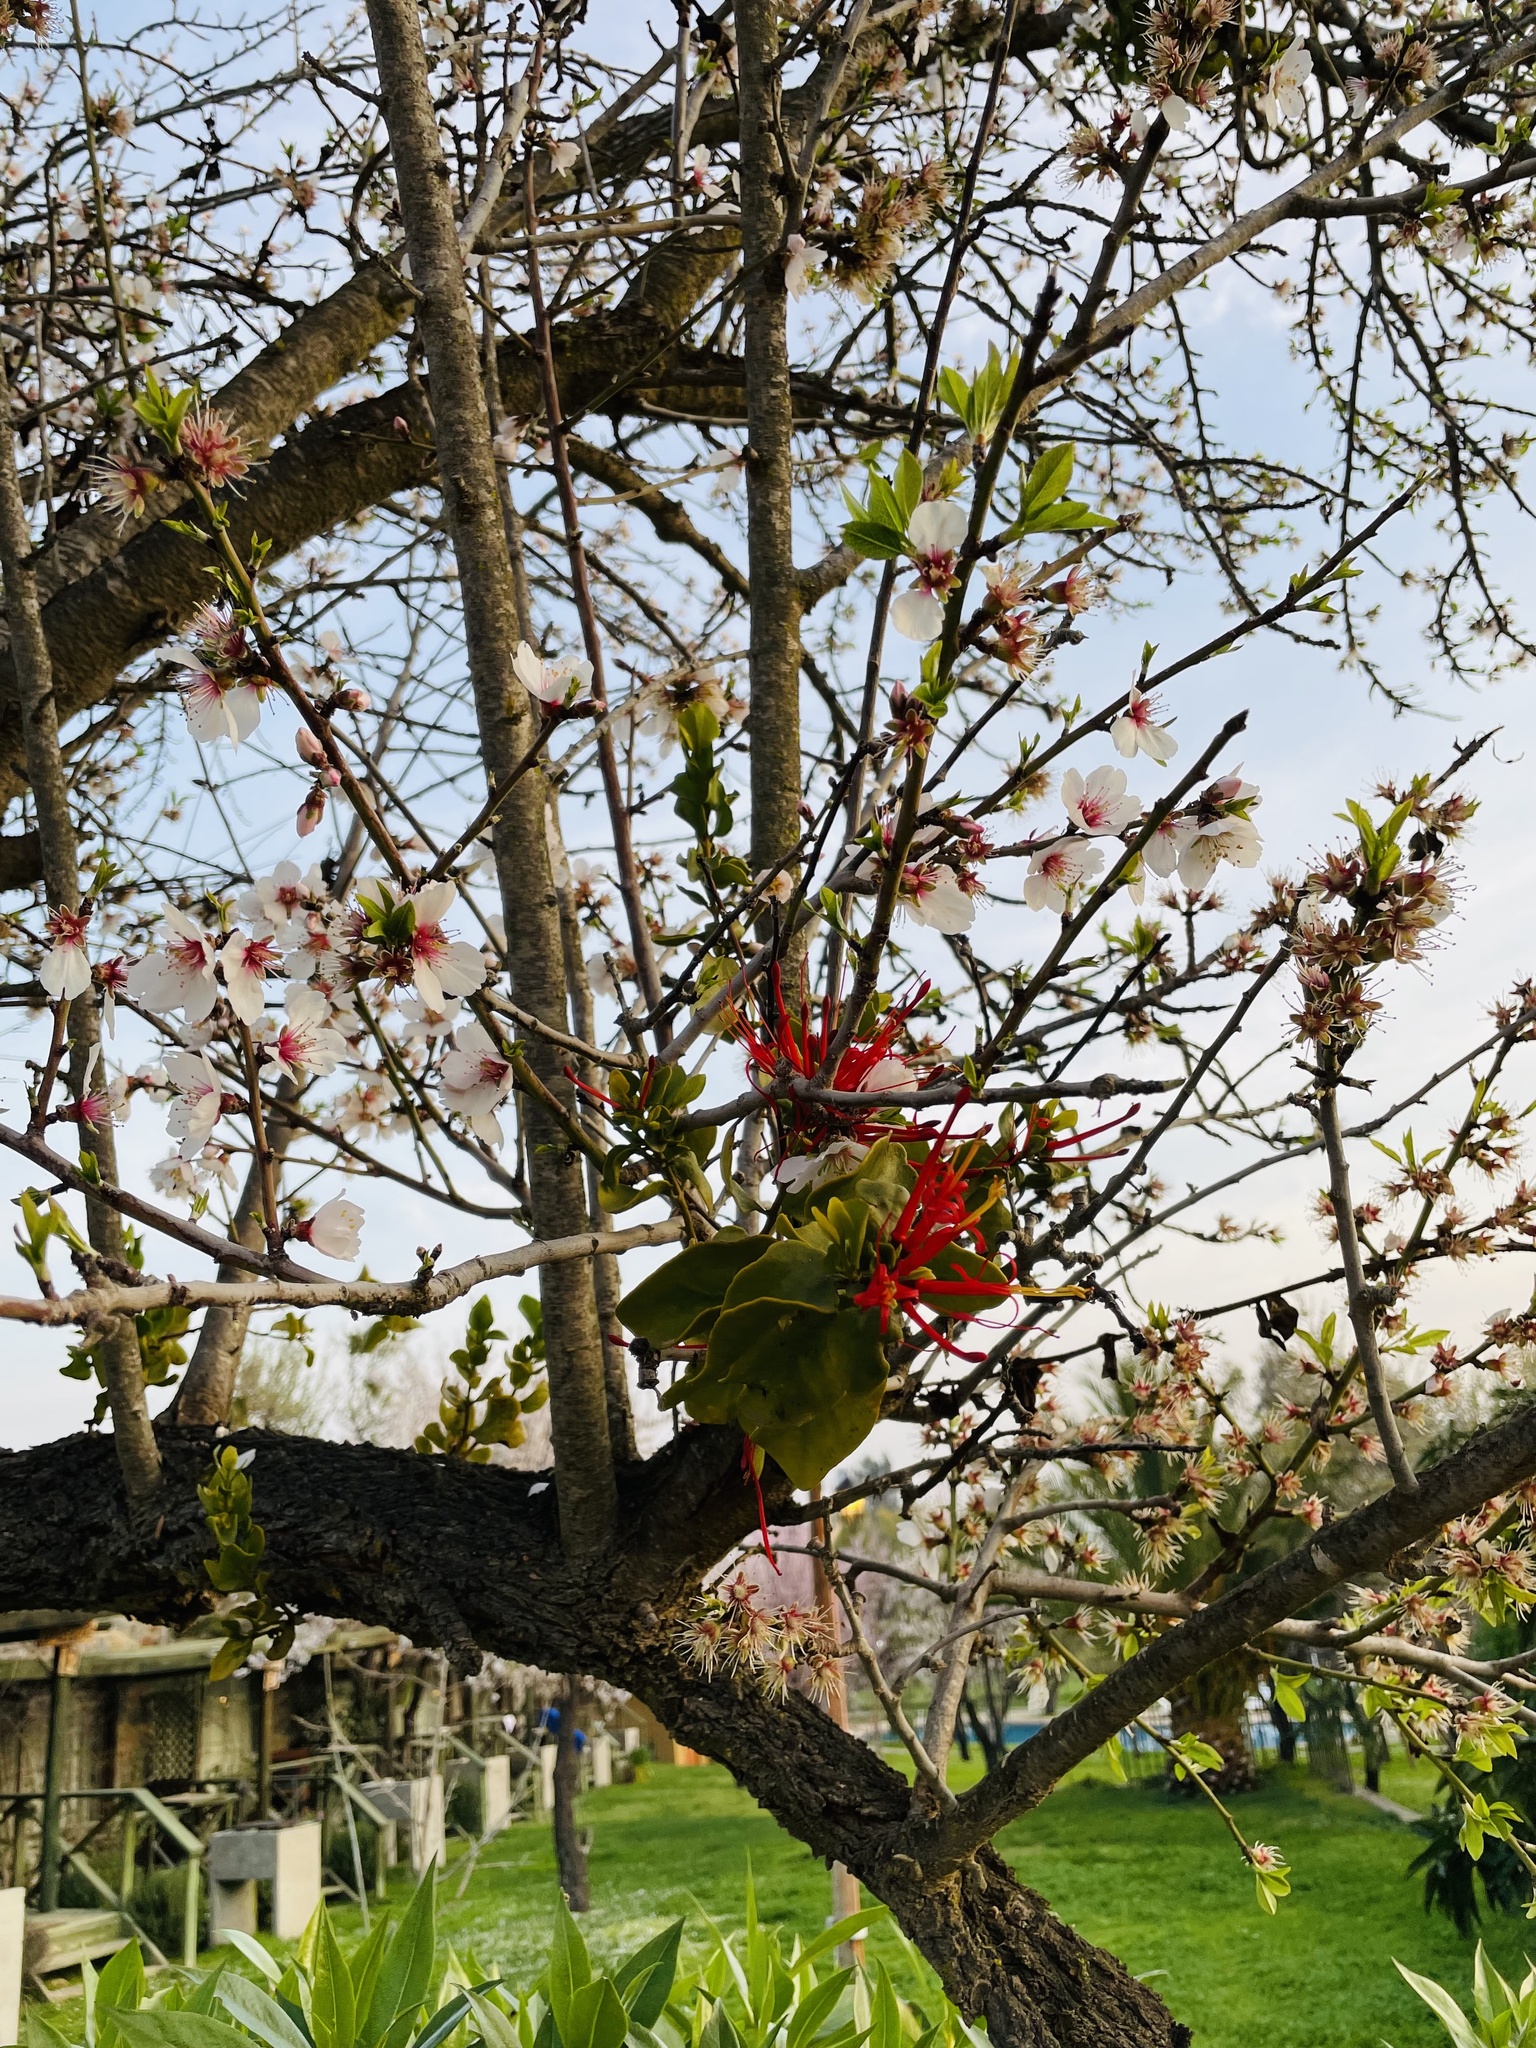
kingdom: Plantae
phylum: Tracheophyta
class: Magnoliopsida
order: Santalales
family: Loranthaceae
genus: Tristerix
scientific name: Tristerix corymbosus
